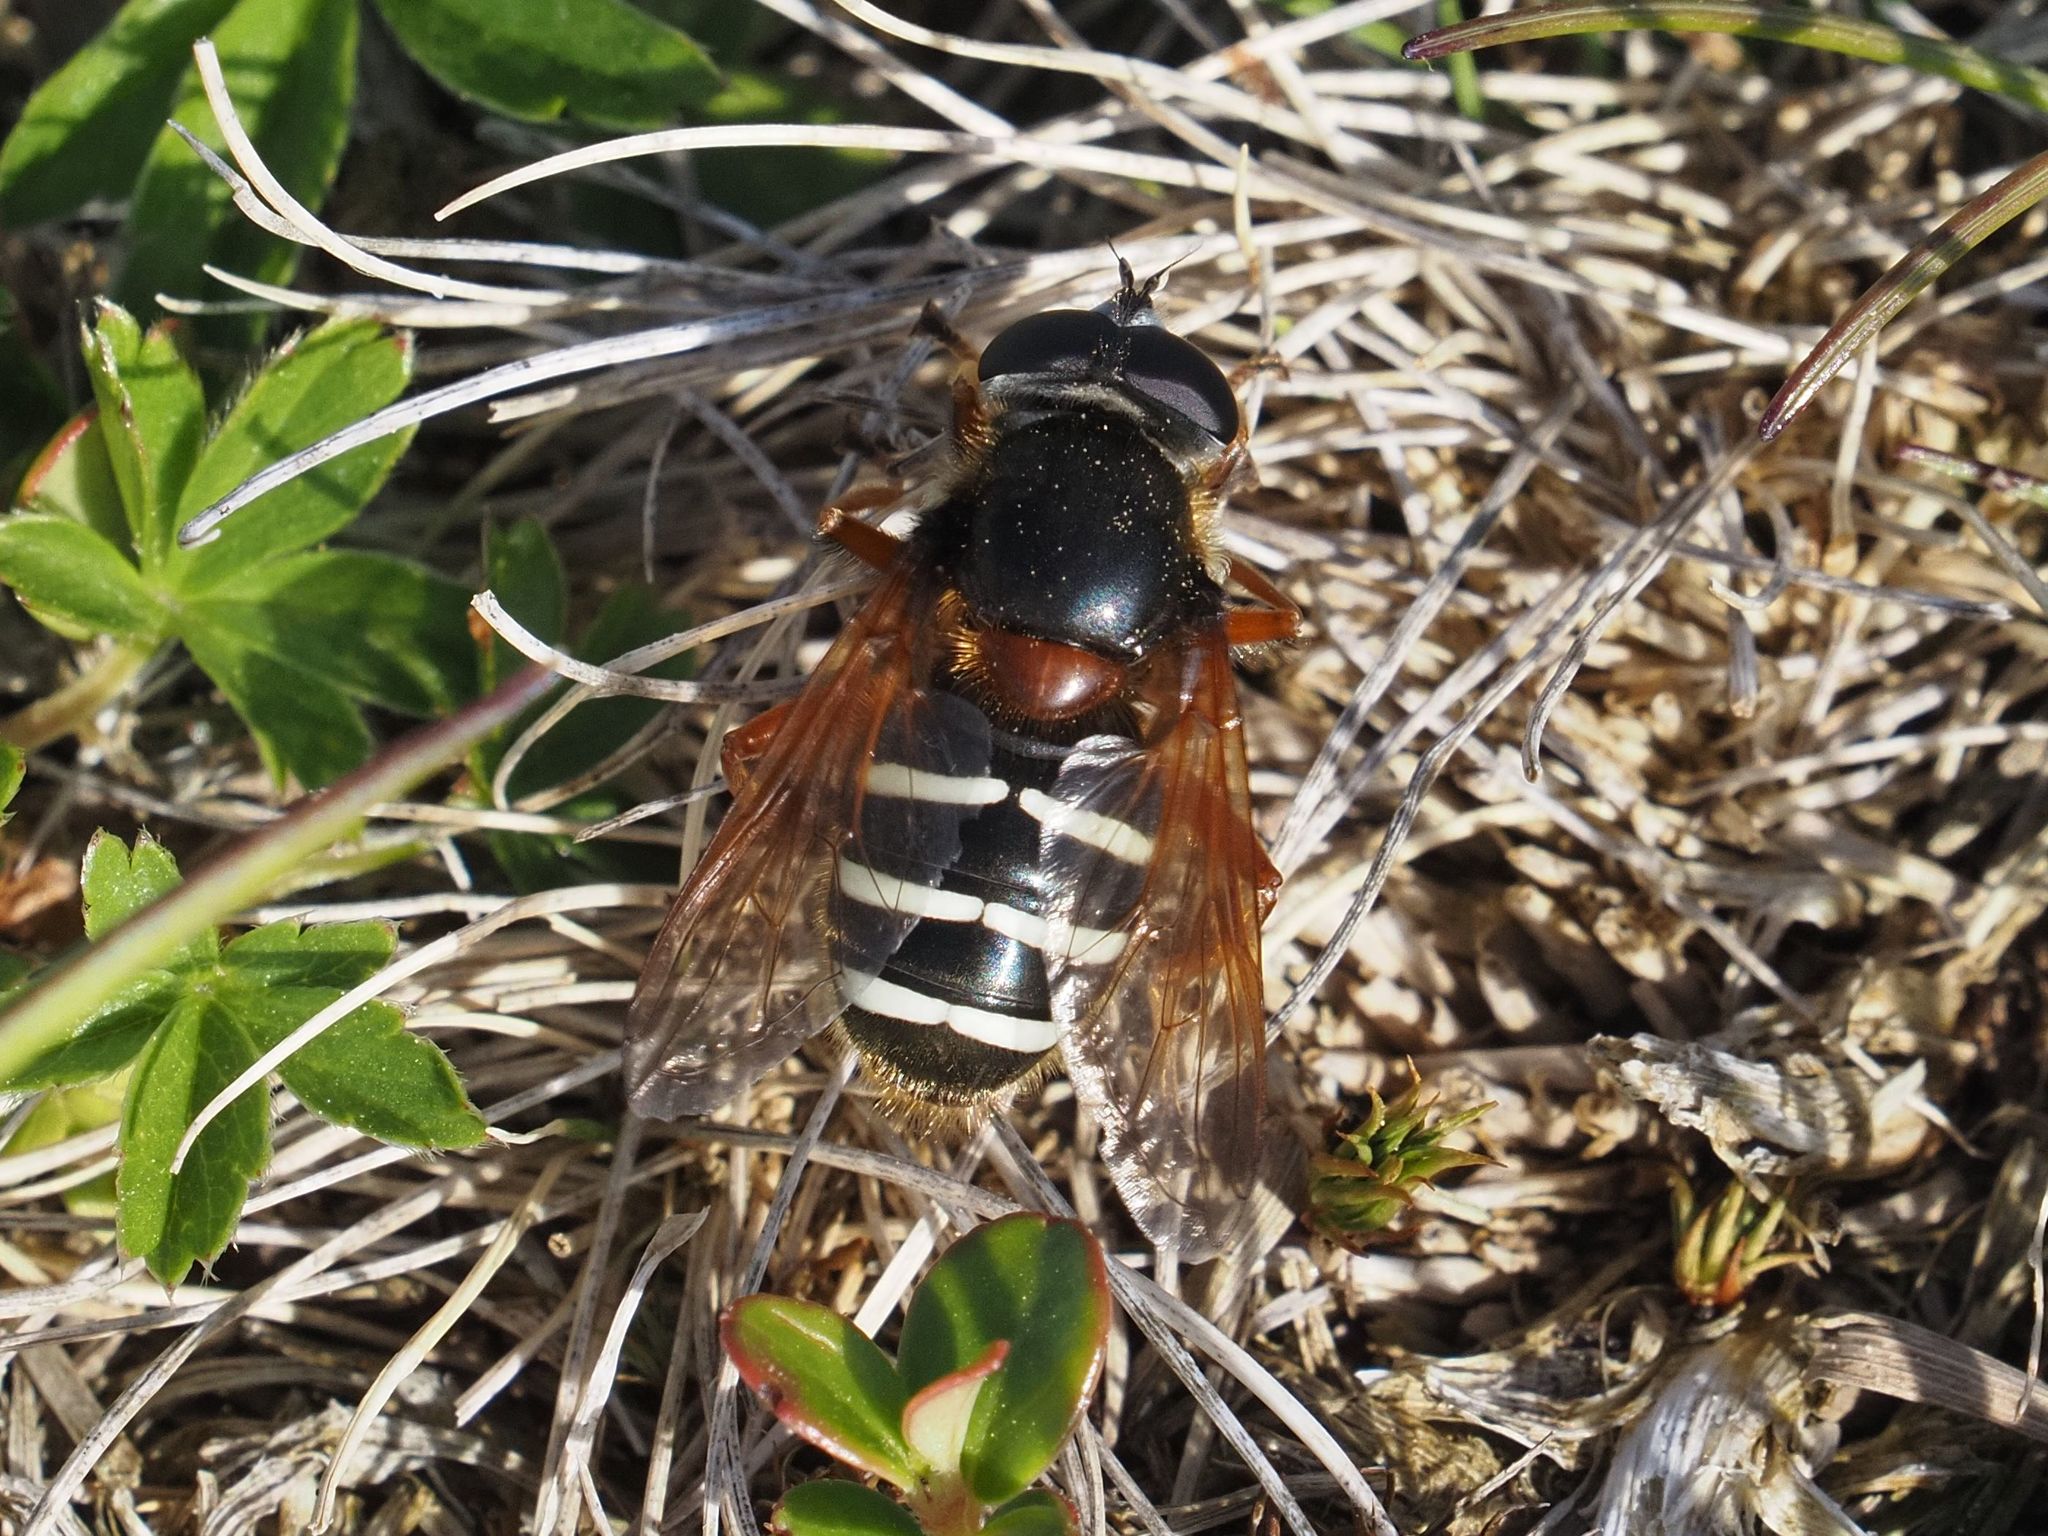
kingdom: Animalia
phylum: Arthropoda
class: Insecta
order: Diptera
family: Syrphidae
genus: Sericomyia
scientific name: Sericomyia lappona
